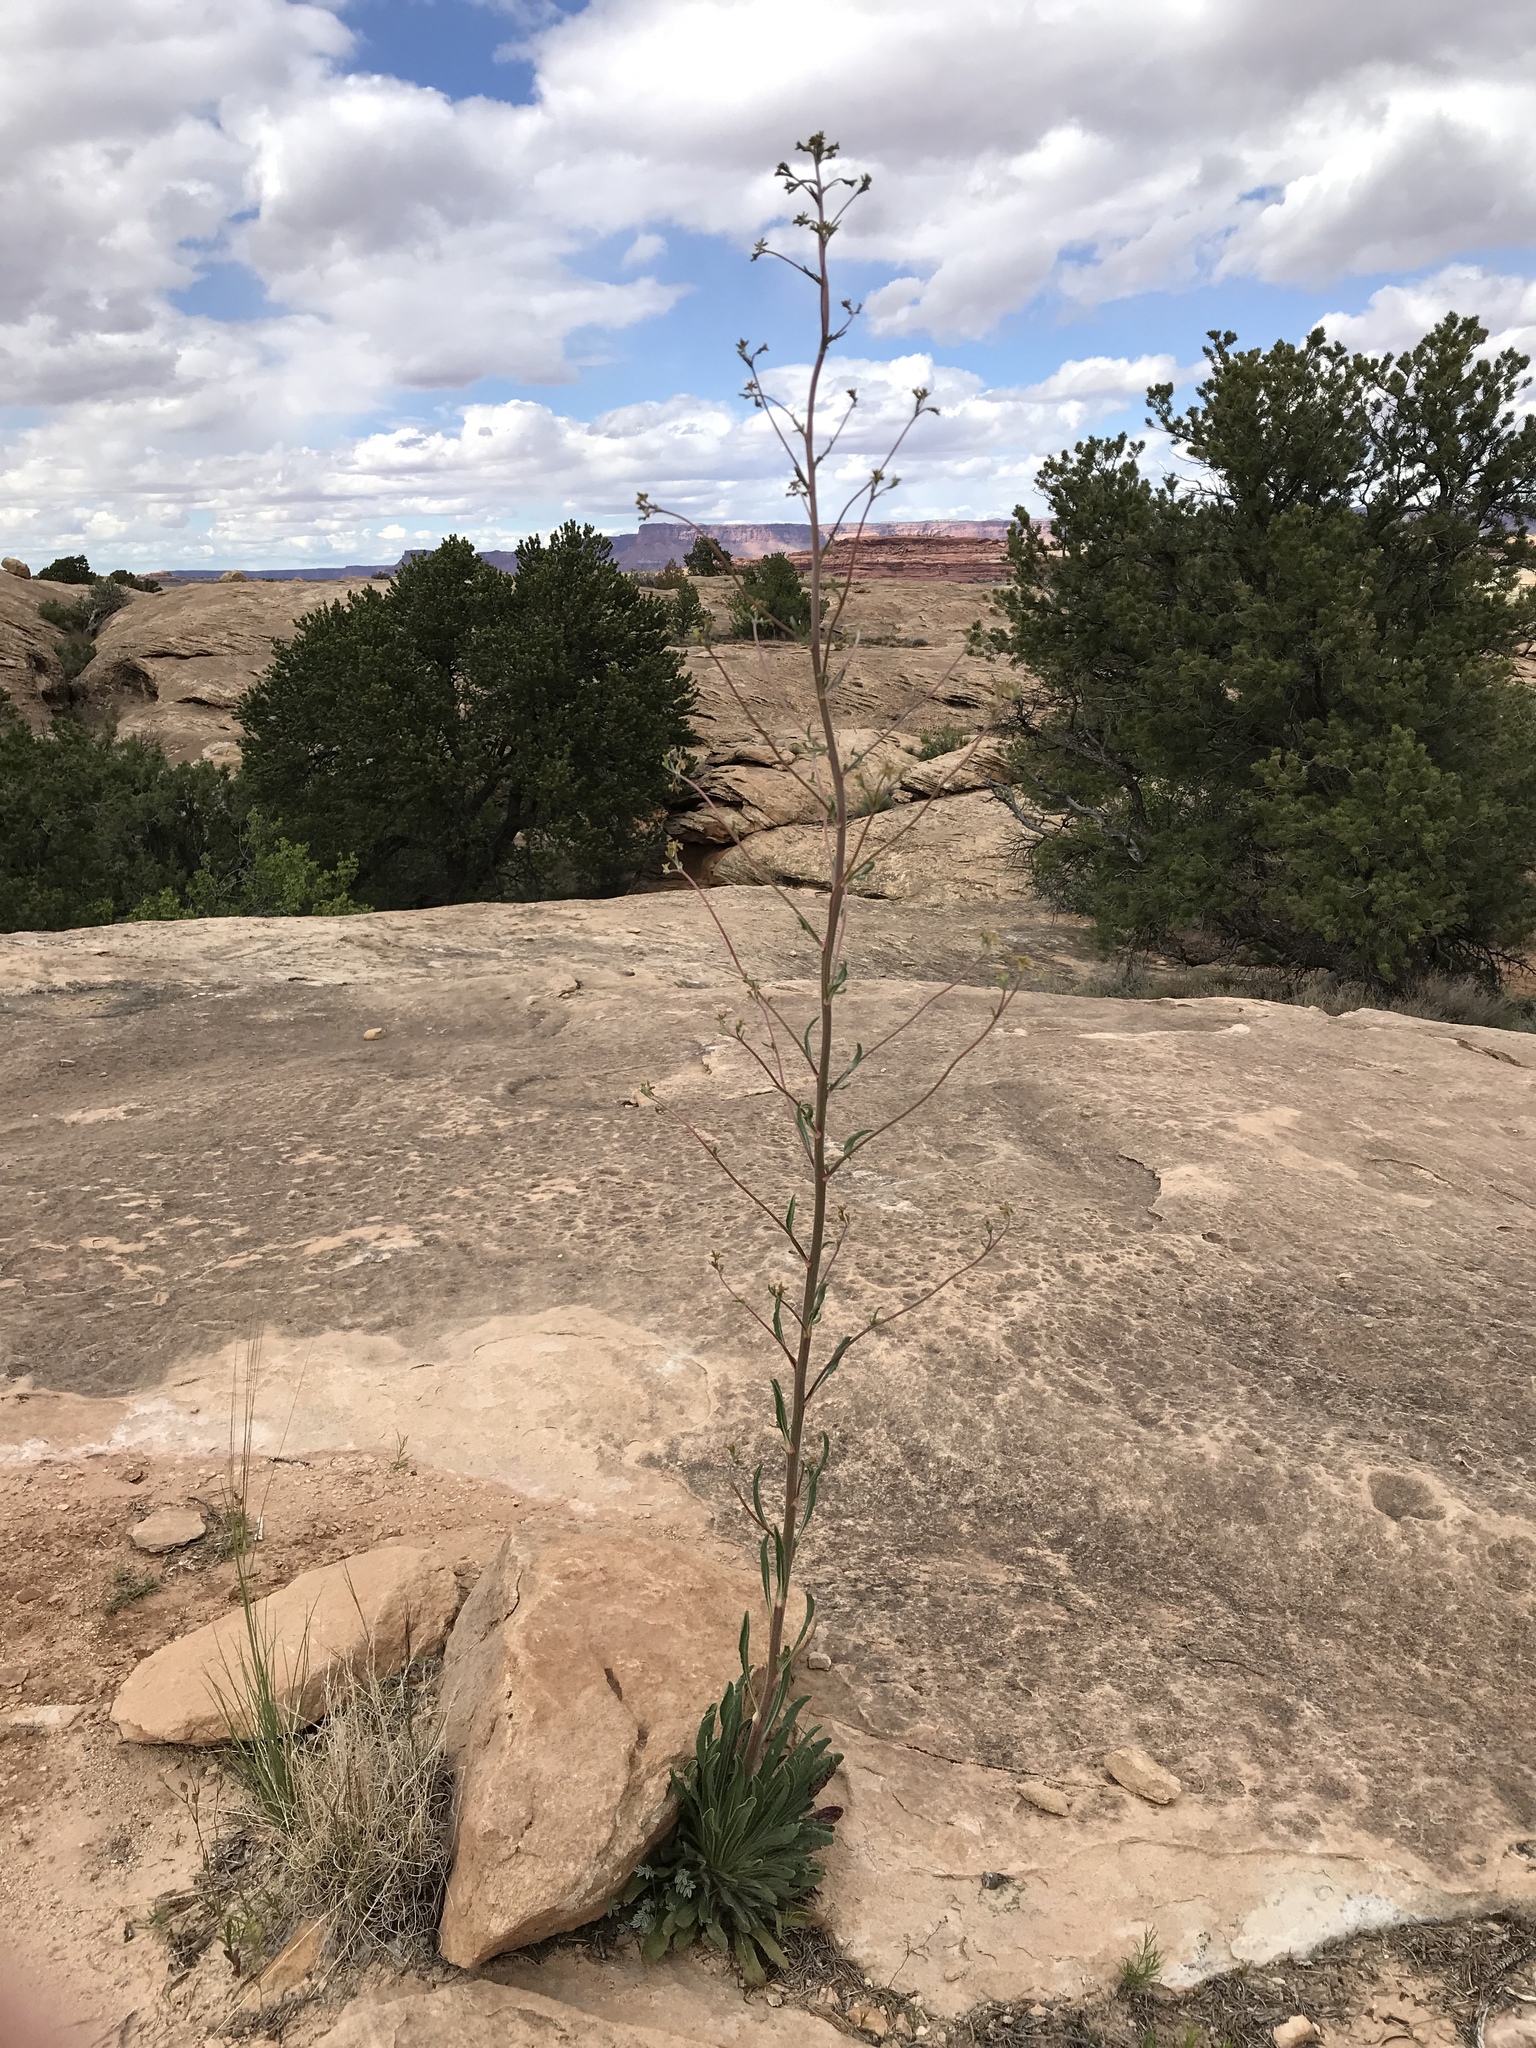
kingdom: Plantae
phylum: Tracheophyta
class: Magnoliopsida
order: Caryophyllales
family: Polygonaceae
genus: Eriogonum
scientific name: Eriogonum alatum
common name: Winged eriogonum
